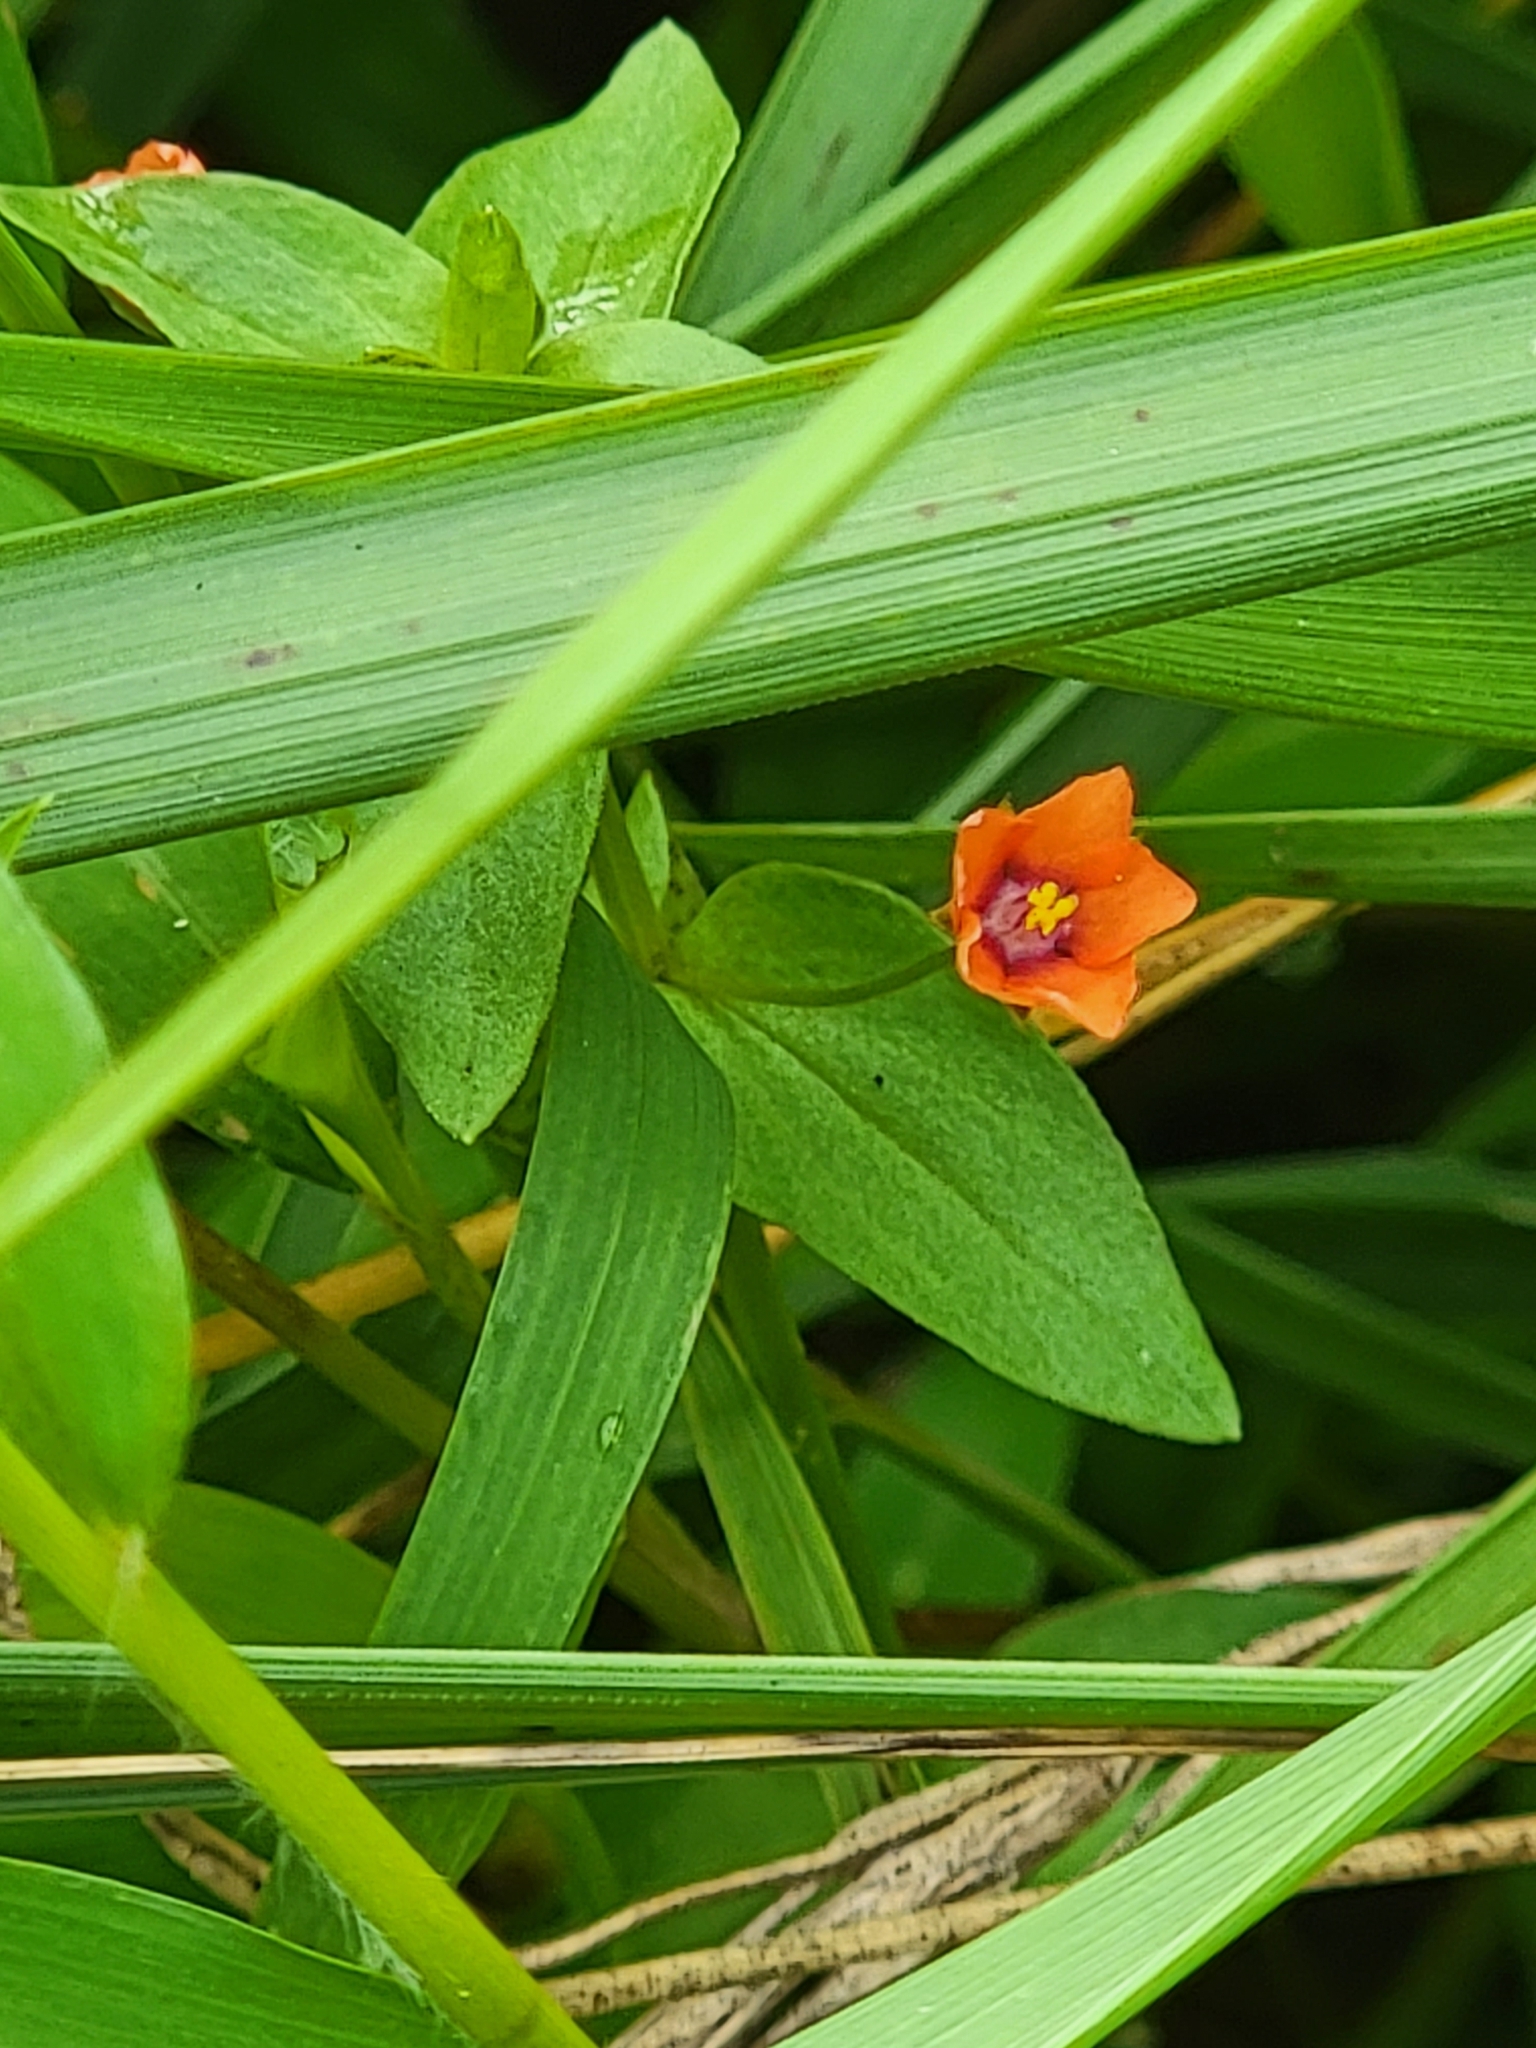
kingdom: Plantae
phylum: Tracheophyta
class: Magnoliopsida
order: Ericales
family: Primulaceae
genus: Lysimachia
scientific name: Lysimachia arvensis
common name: Scarlet pimpernel
